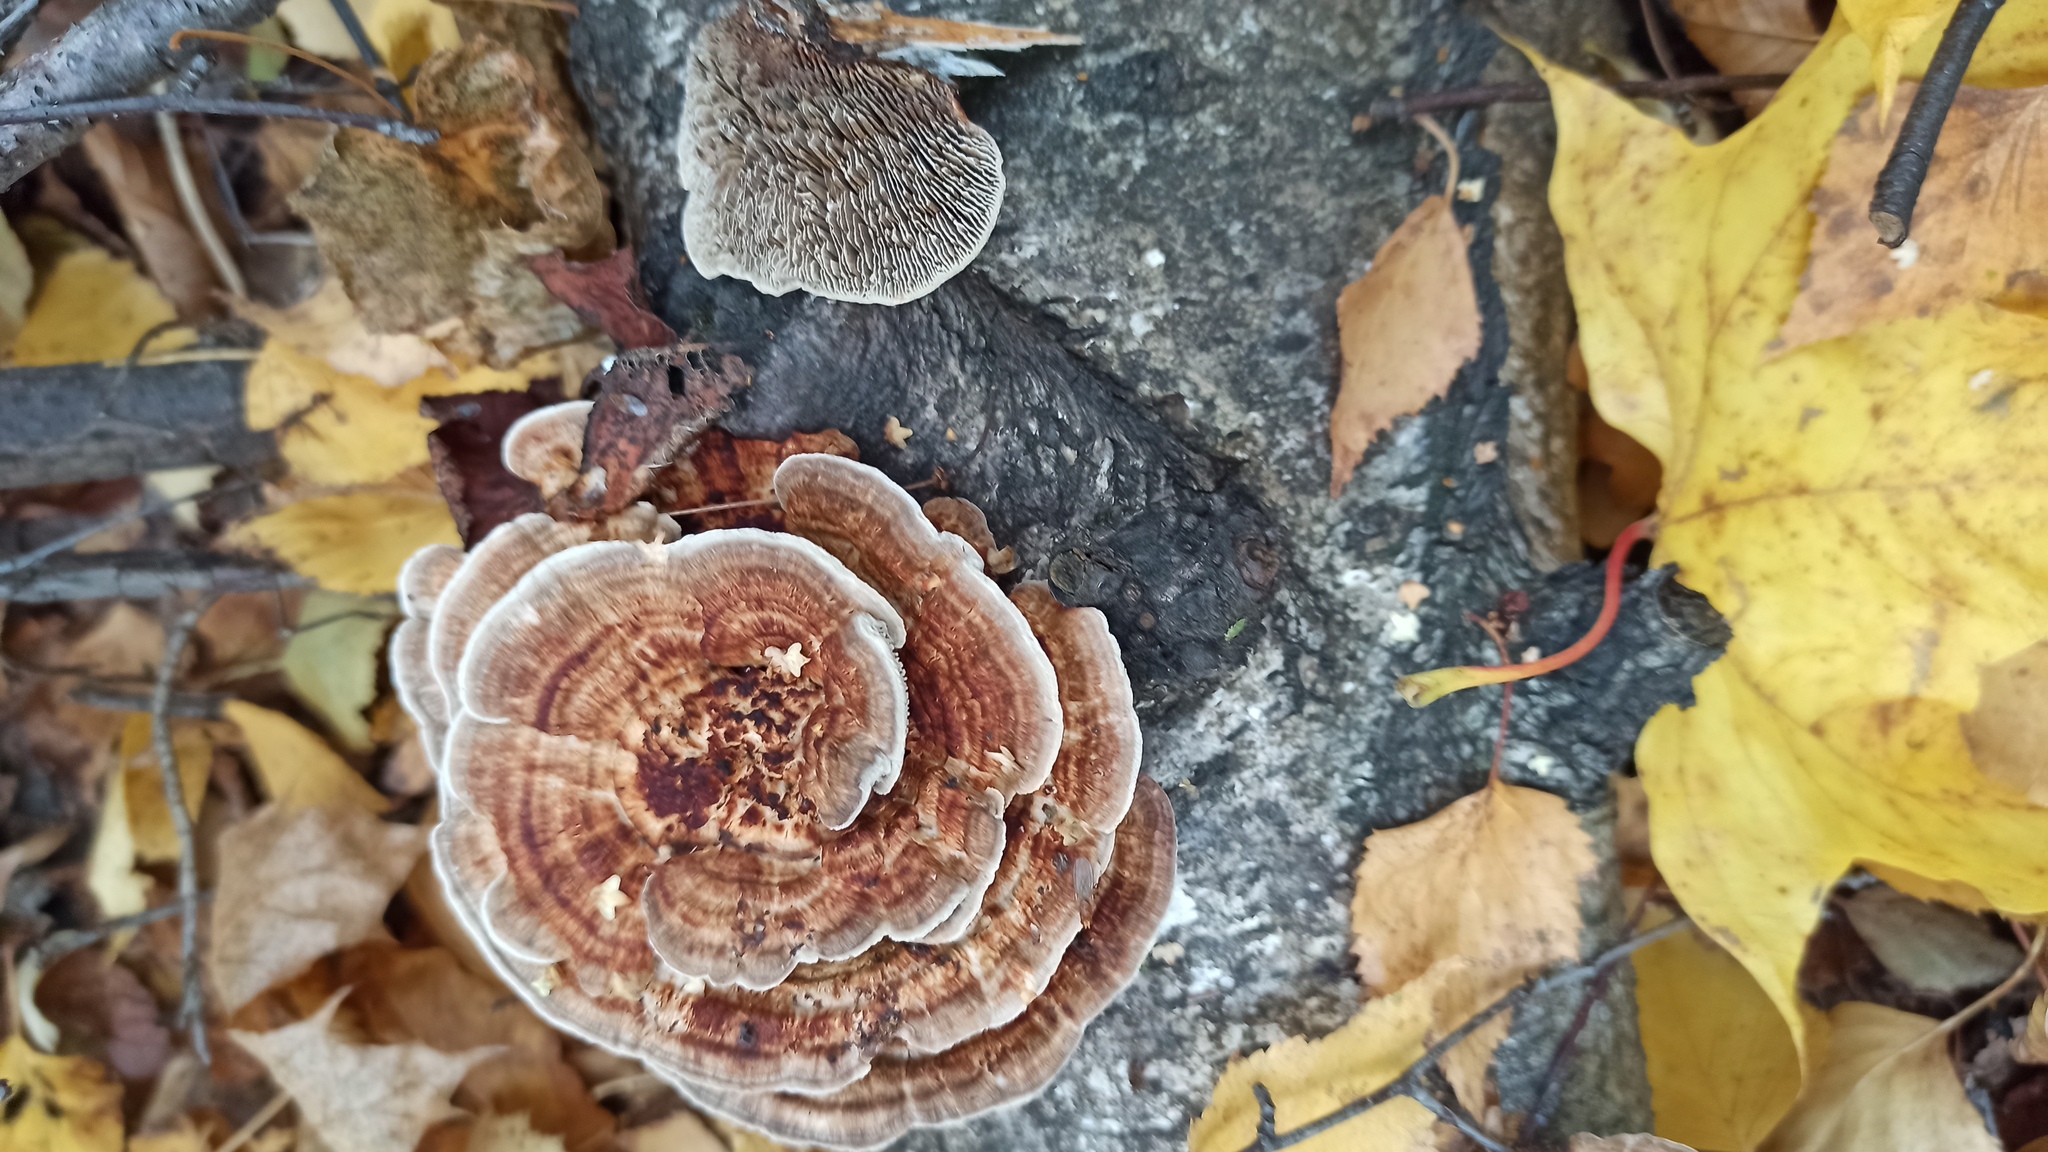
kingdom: Fungi
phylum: Basidiomycota
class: Agaricomycetes
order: Polyporales
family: Polyporaceae
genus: Trametes
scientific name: Trametes versicolor
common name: Turkeytail
